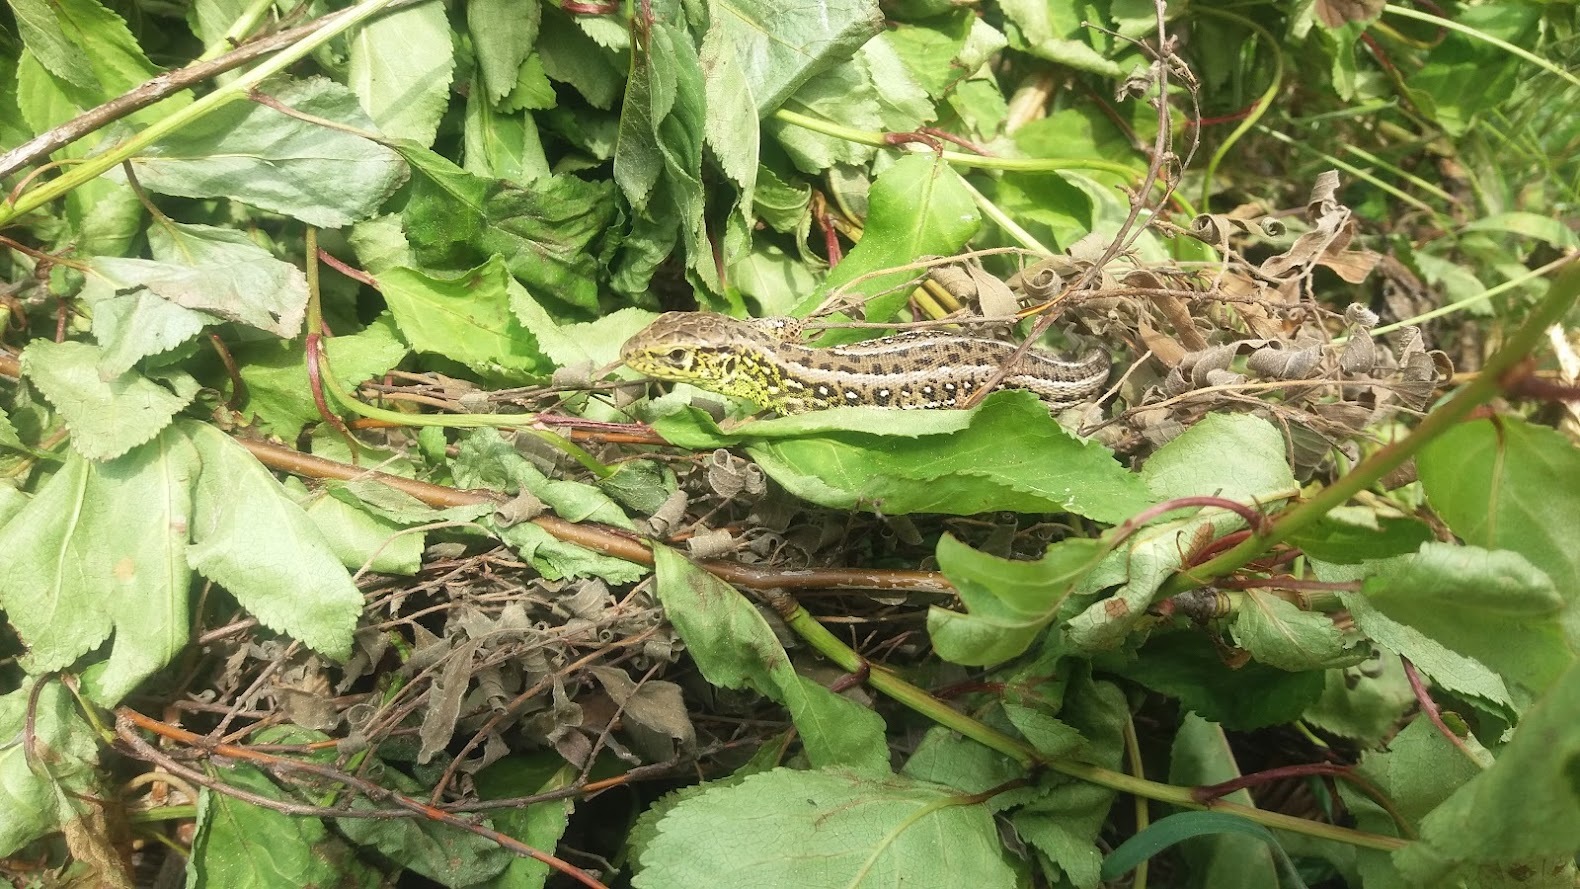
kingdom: Animalia
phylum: Chordata
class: Squamata
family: Lacertidae
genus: Lacerta
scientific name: Lacerta agilis
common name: Sand lizard
